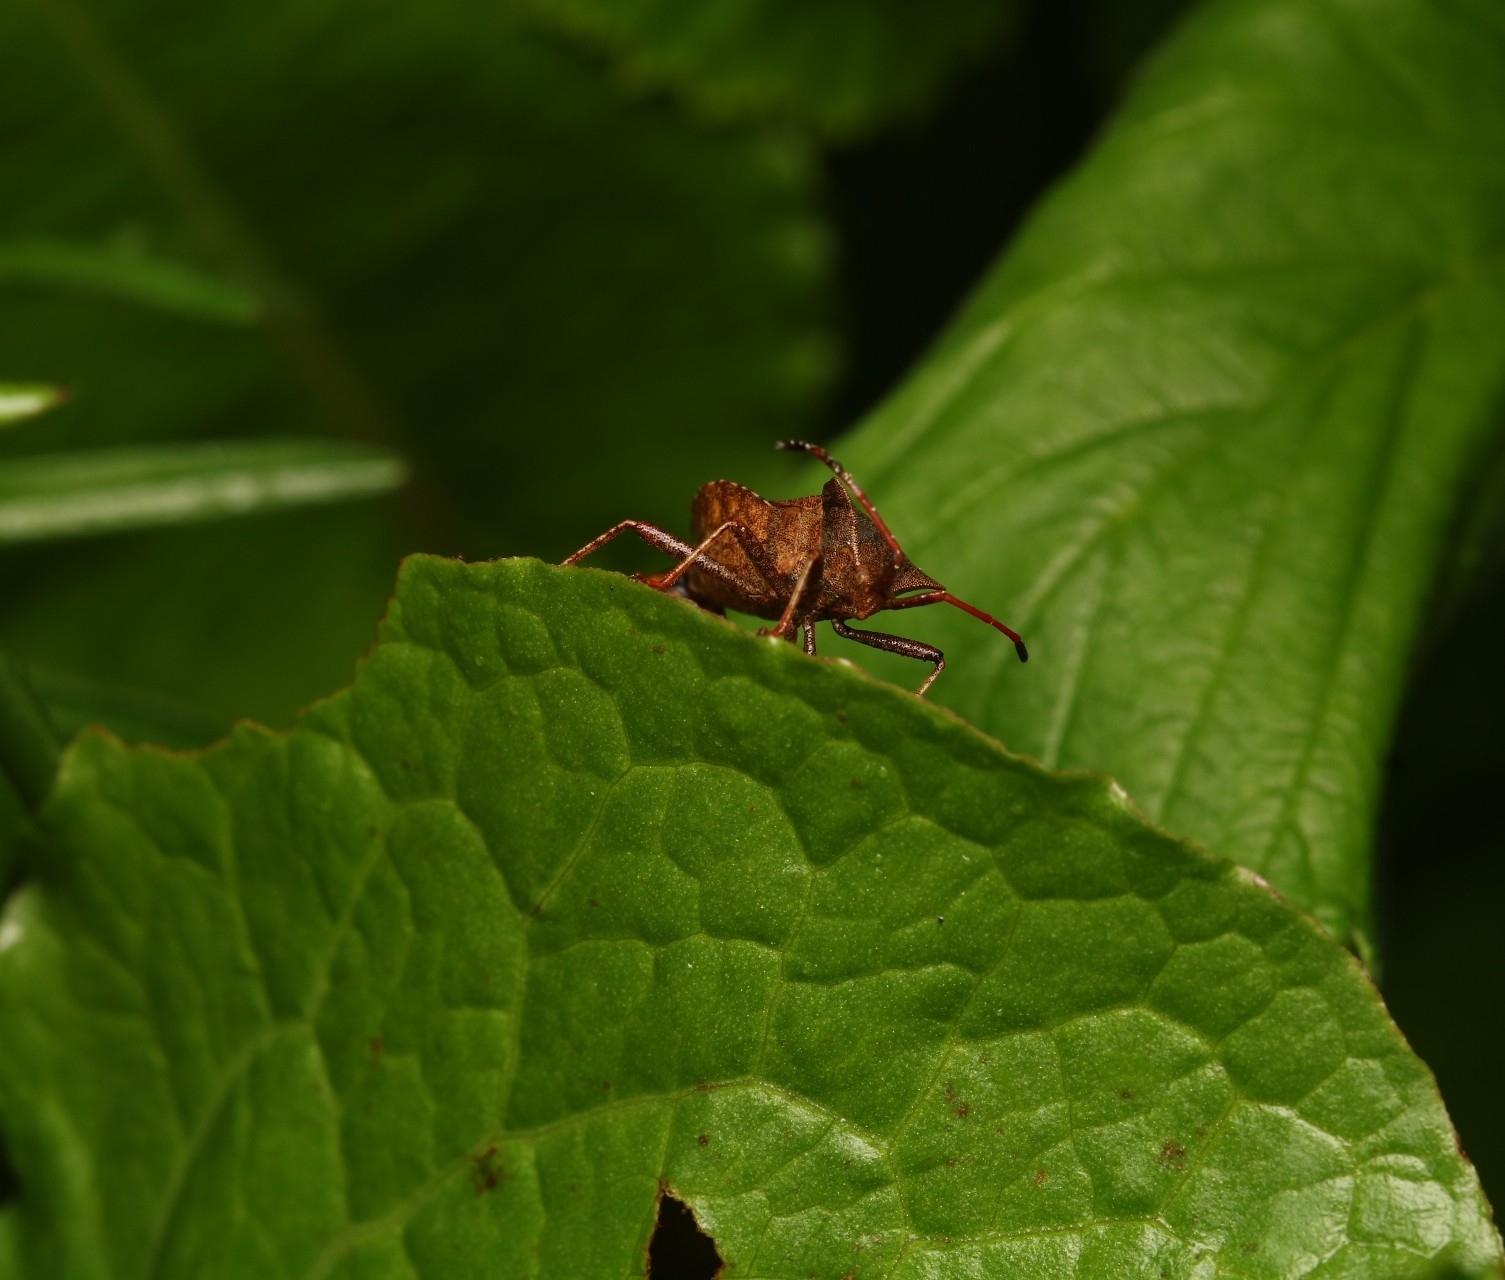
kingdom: Animalia
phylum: Arthropoda
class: Insecta
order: Hemiptera
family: Coreidae
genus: Coreus
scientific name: Coreus marginatus
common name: Dock bug
